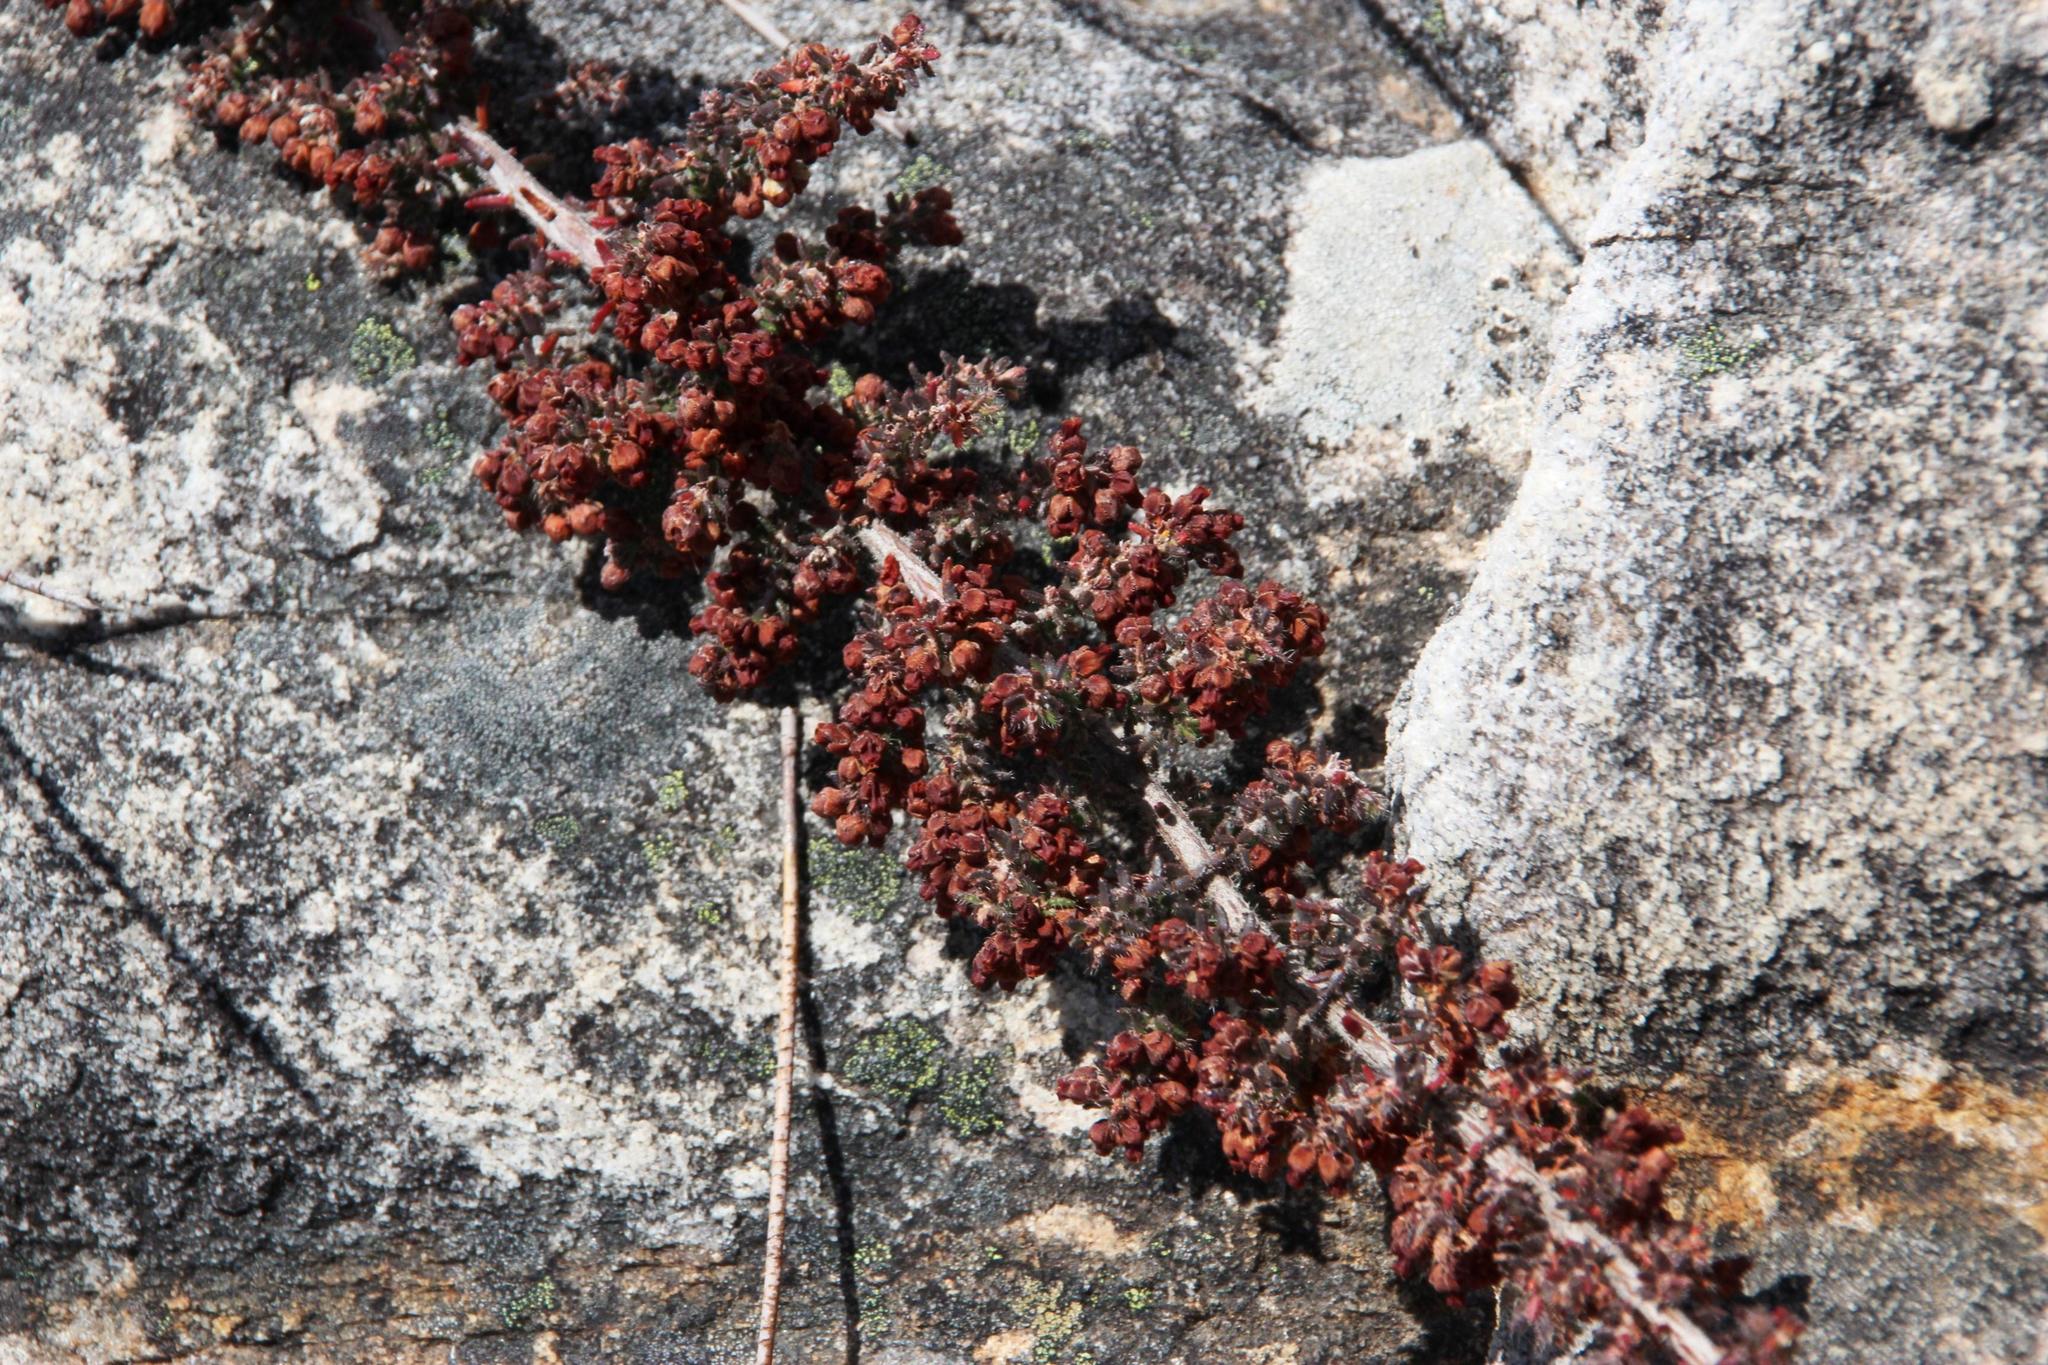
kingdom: Plantae
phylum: Tracheophyta
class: Magnoliopsida
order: Ericales
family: Ericaceae
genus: Erica
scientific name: Erica totta
